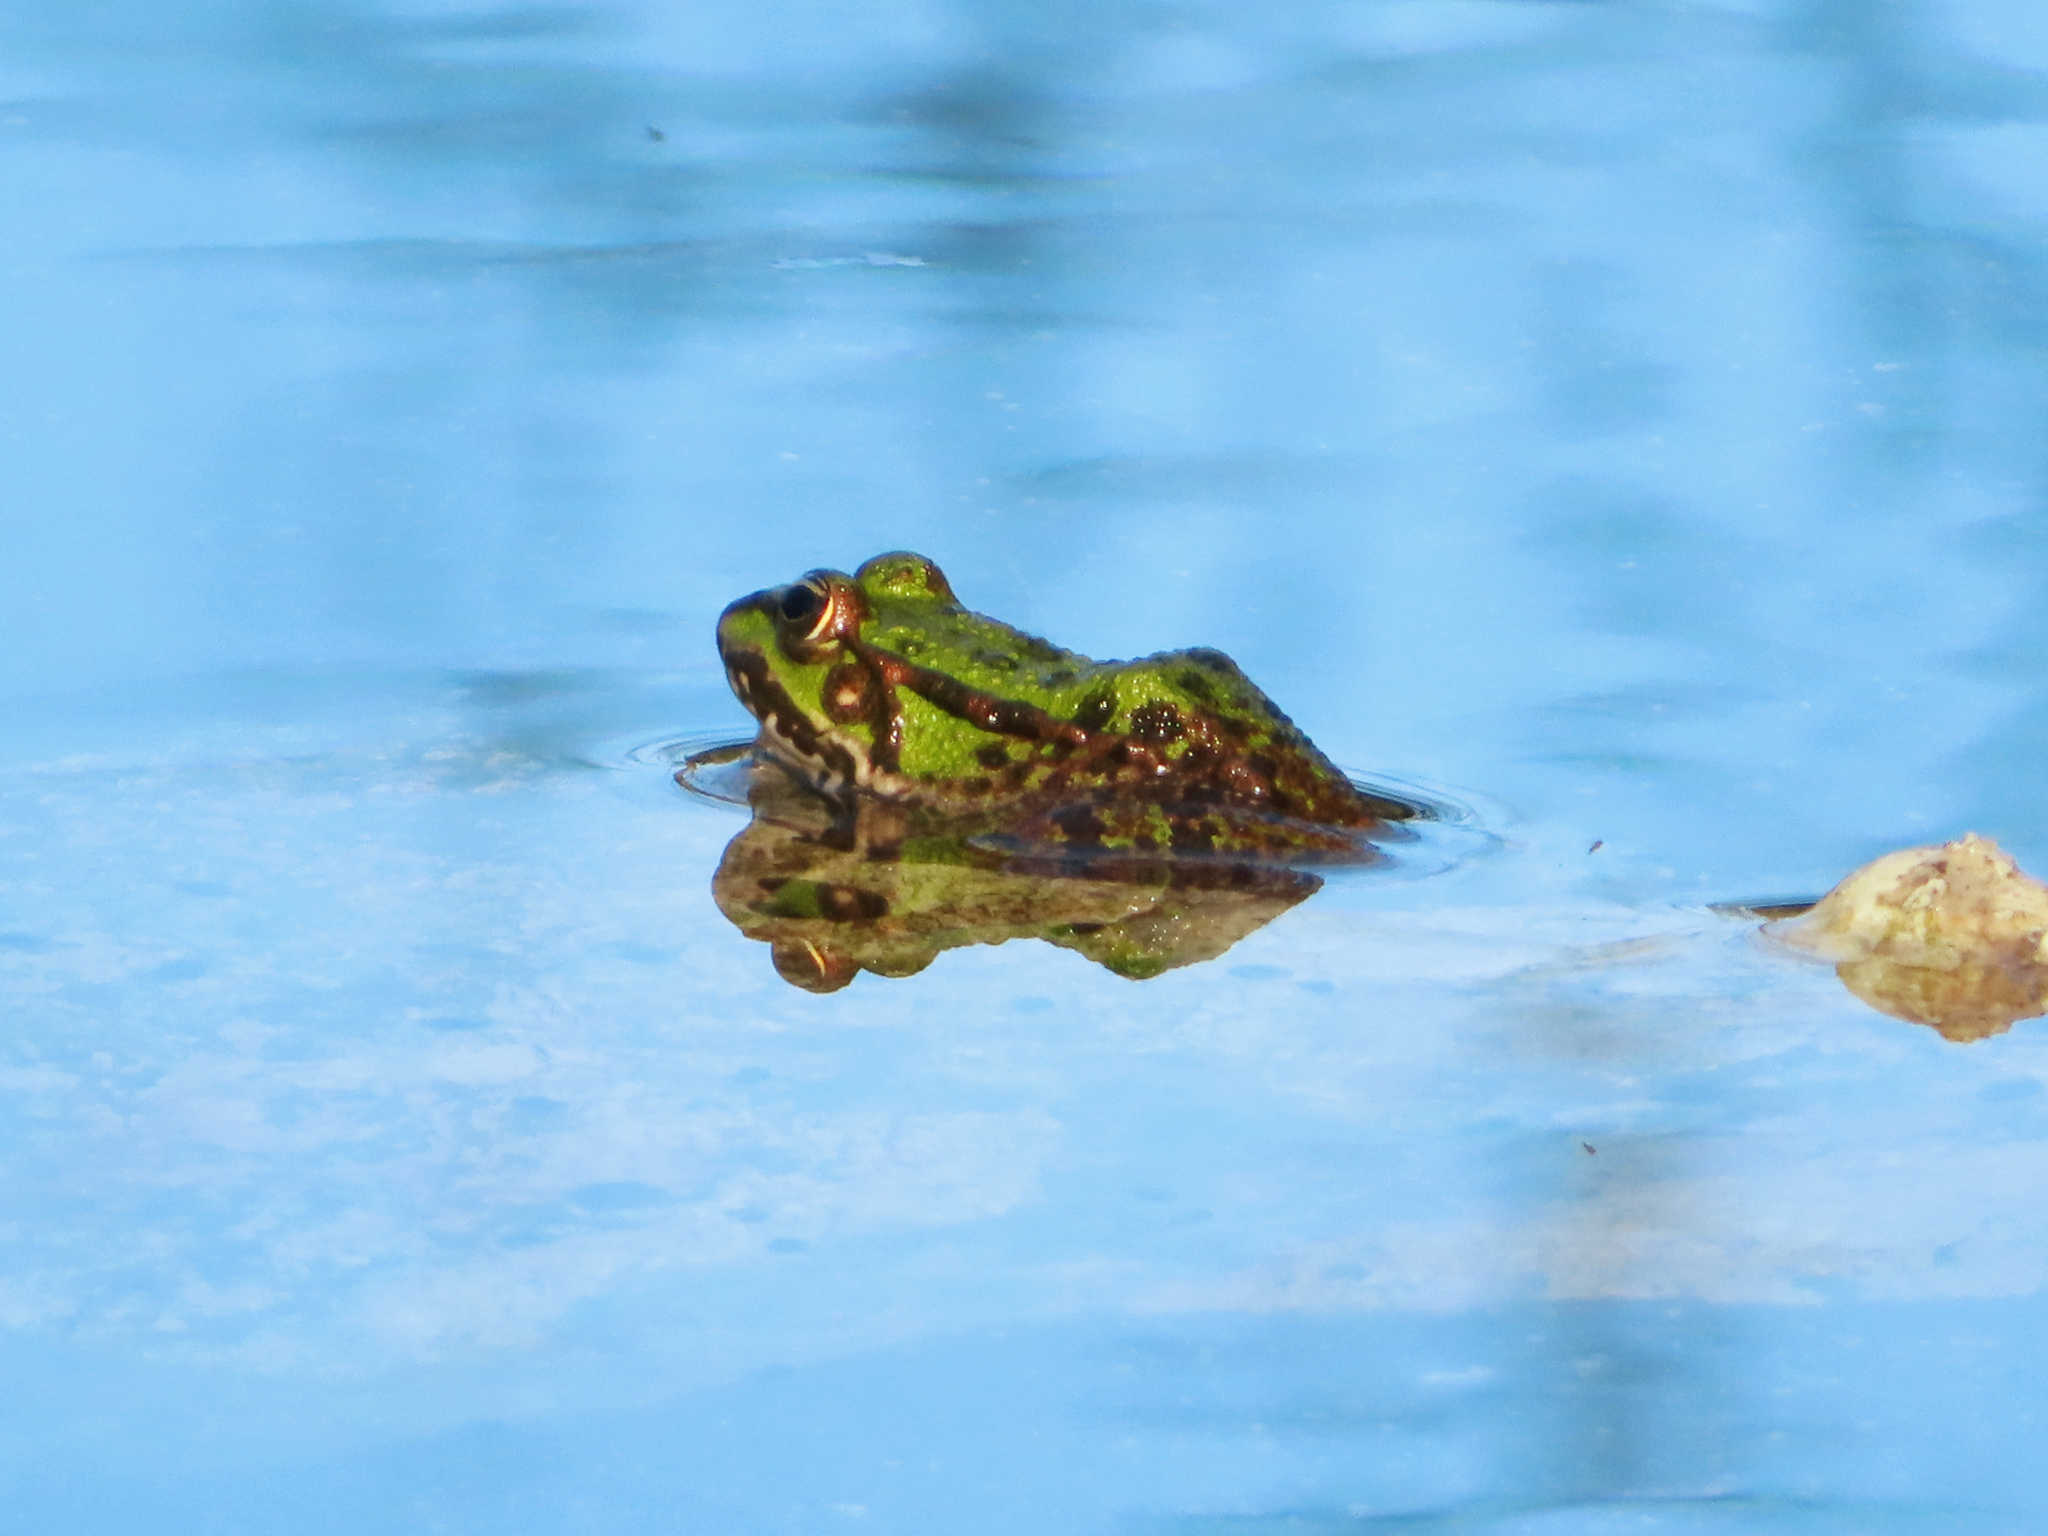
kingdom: Animalia
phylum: Chordata
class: Amphibia
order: Anura
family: Ranidae
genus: Pelophylax
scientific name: Pelophylax ridibundus
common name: Marsh frog
